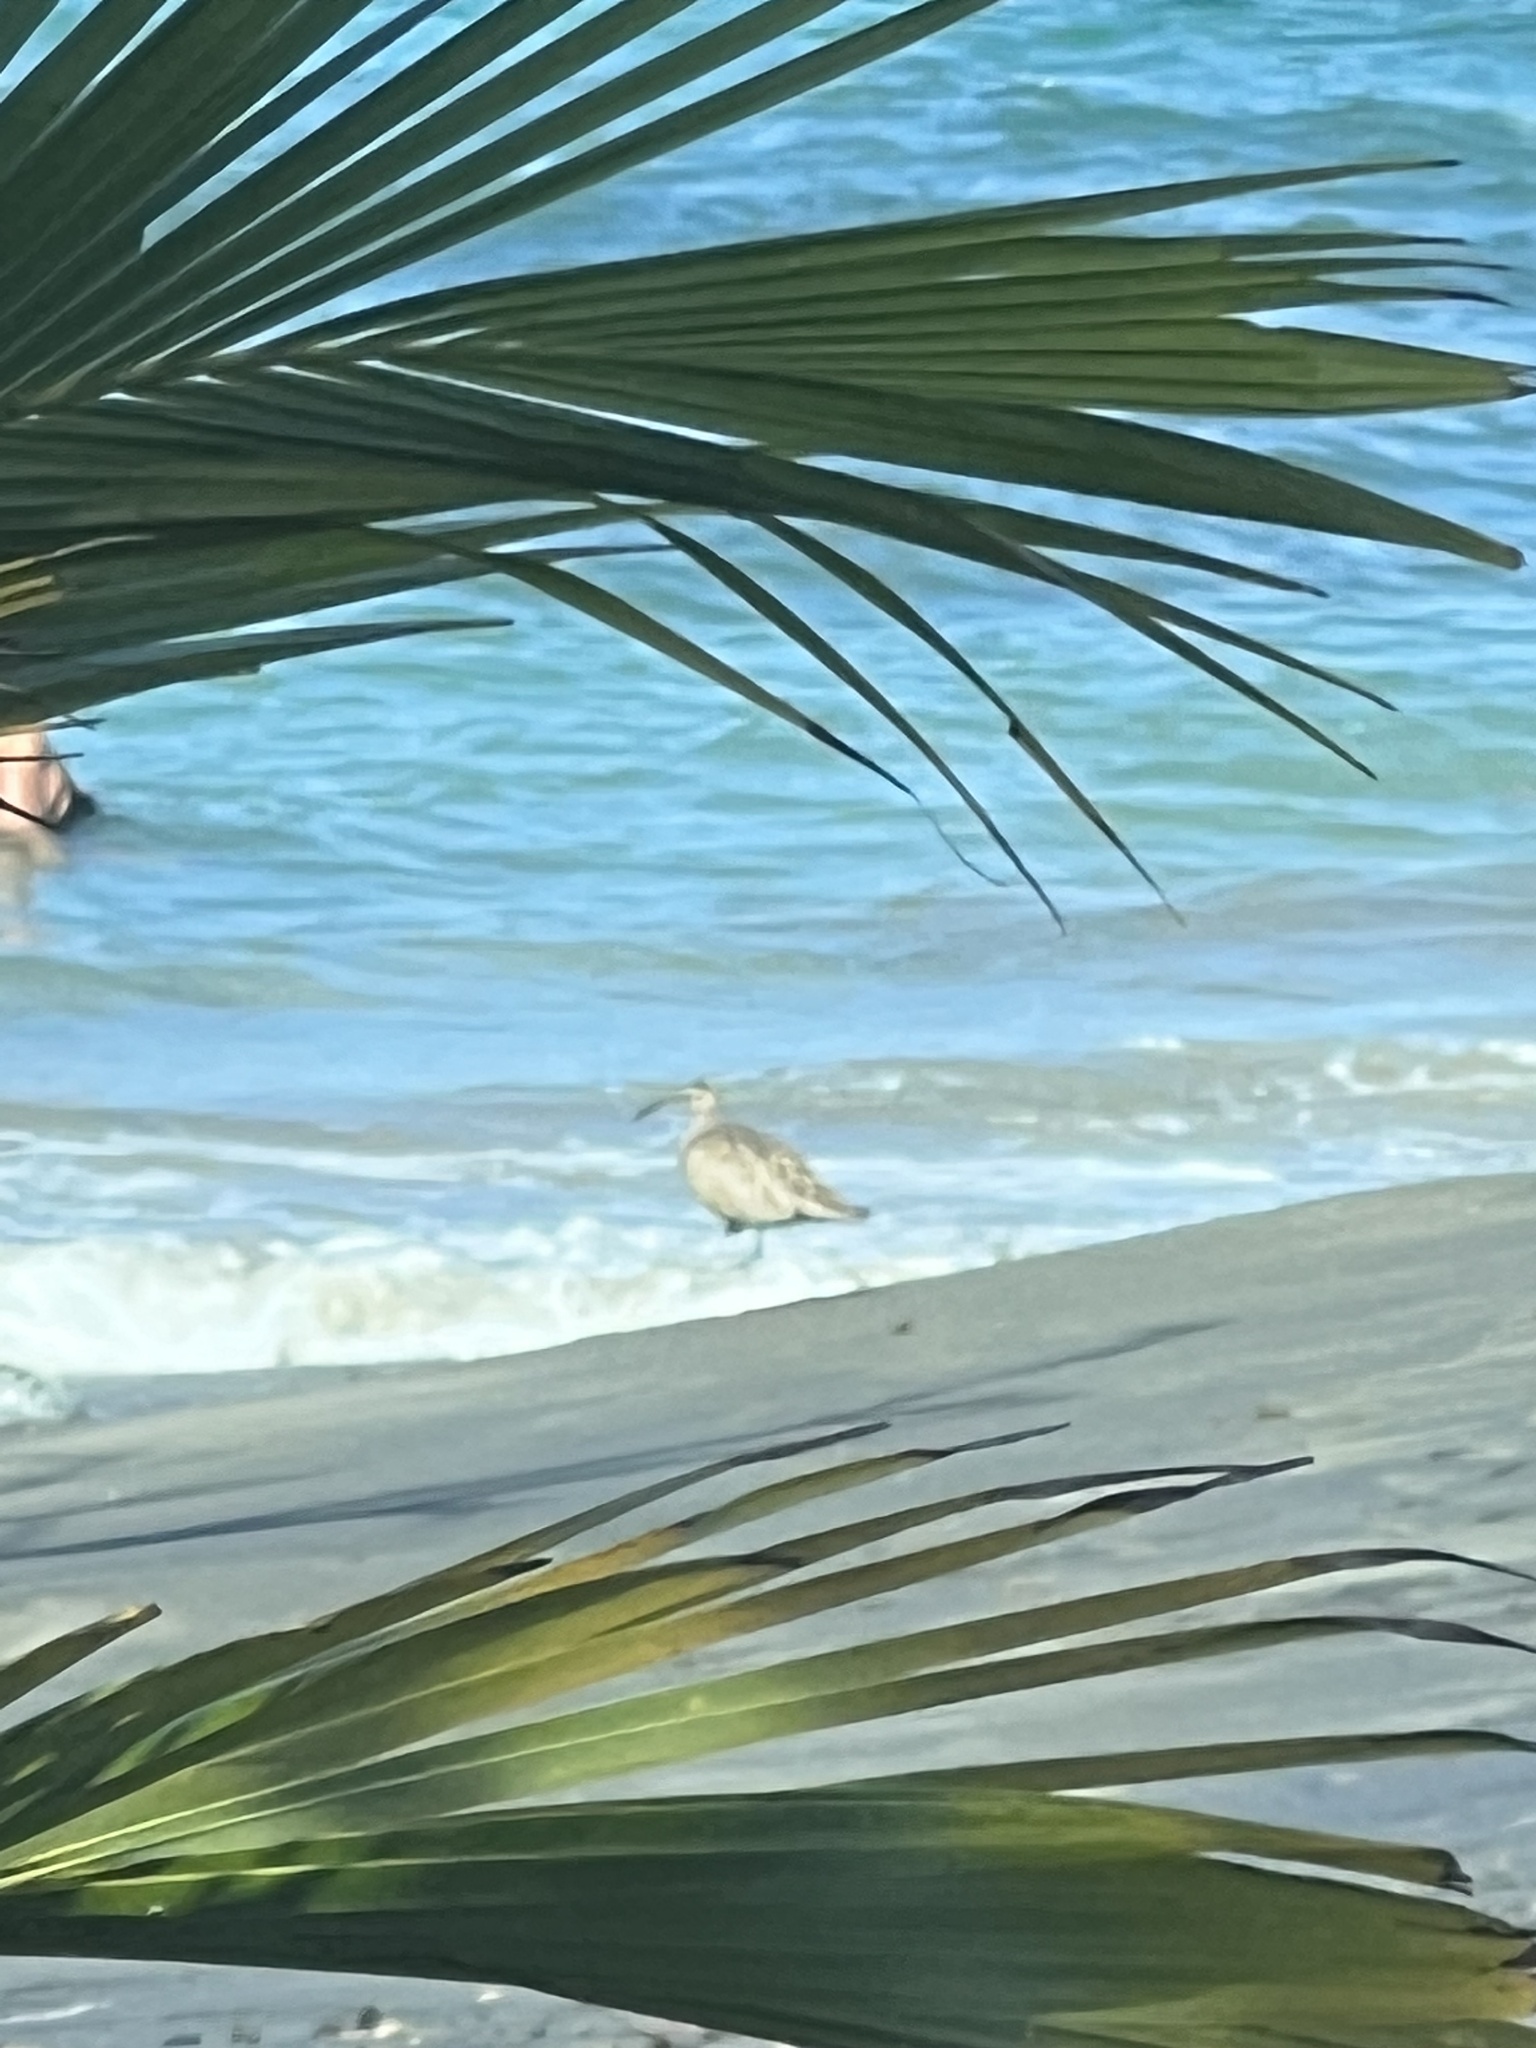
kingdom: Animalia
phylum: Chordata
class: Aves
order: Charadriiformes
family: Scolopacidae
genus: Numenius
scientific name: Numenius phaeopus
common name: Whimbrel
